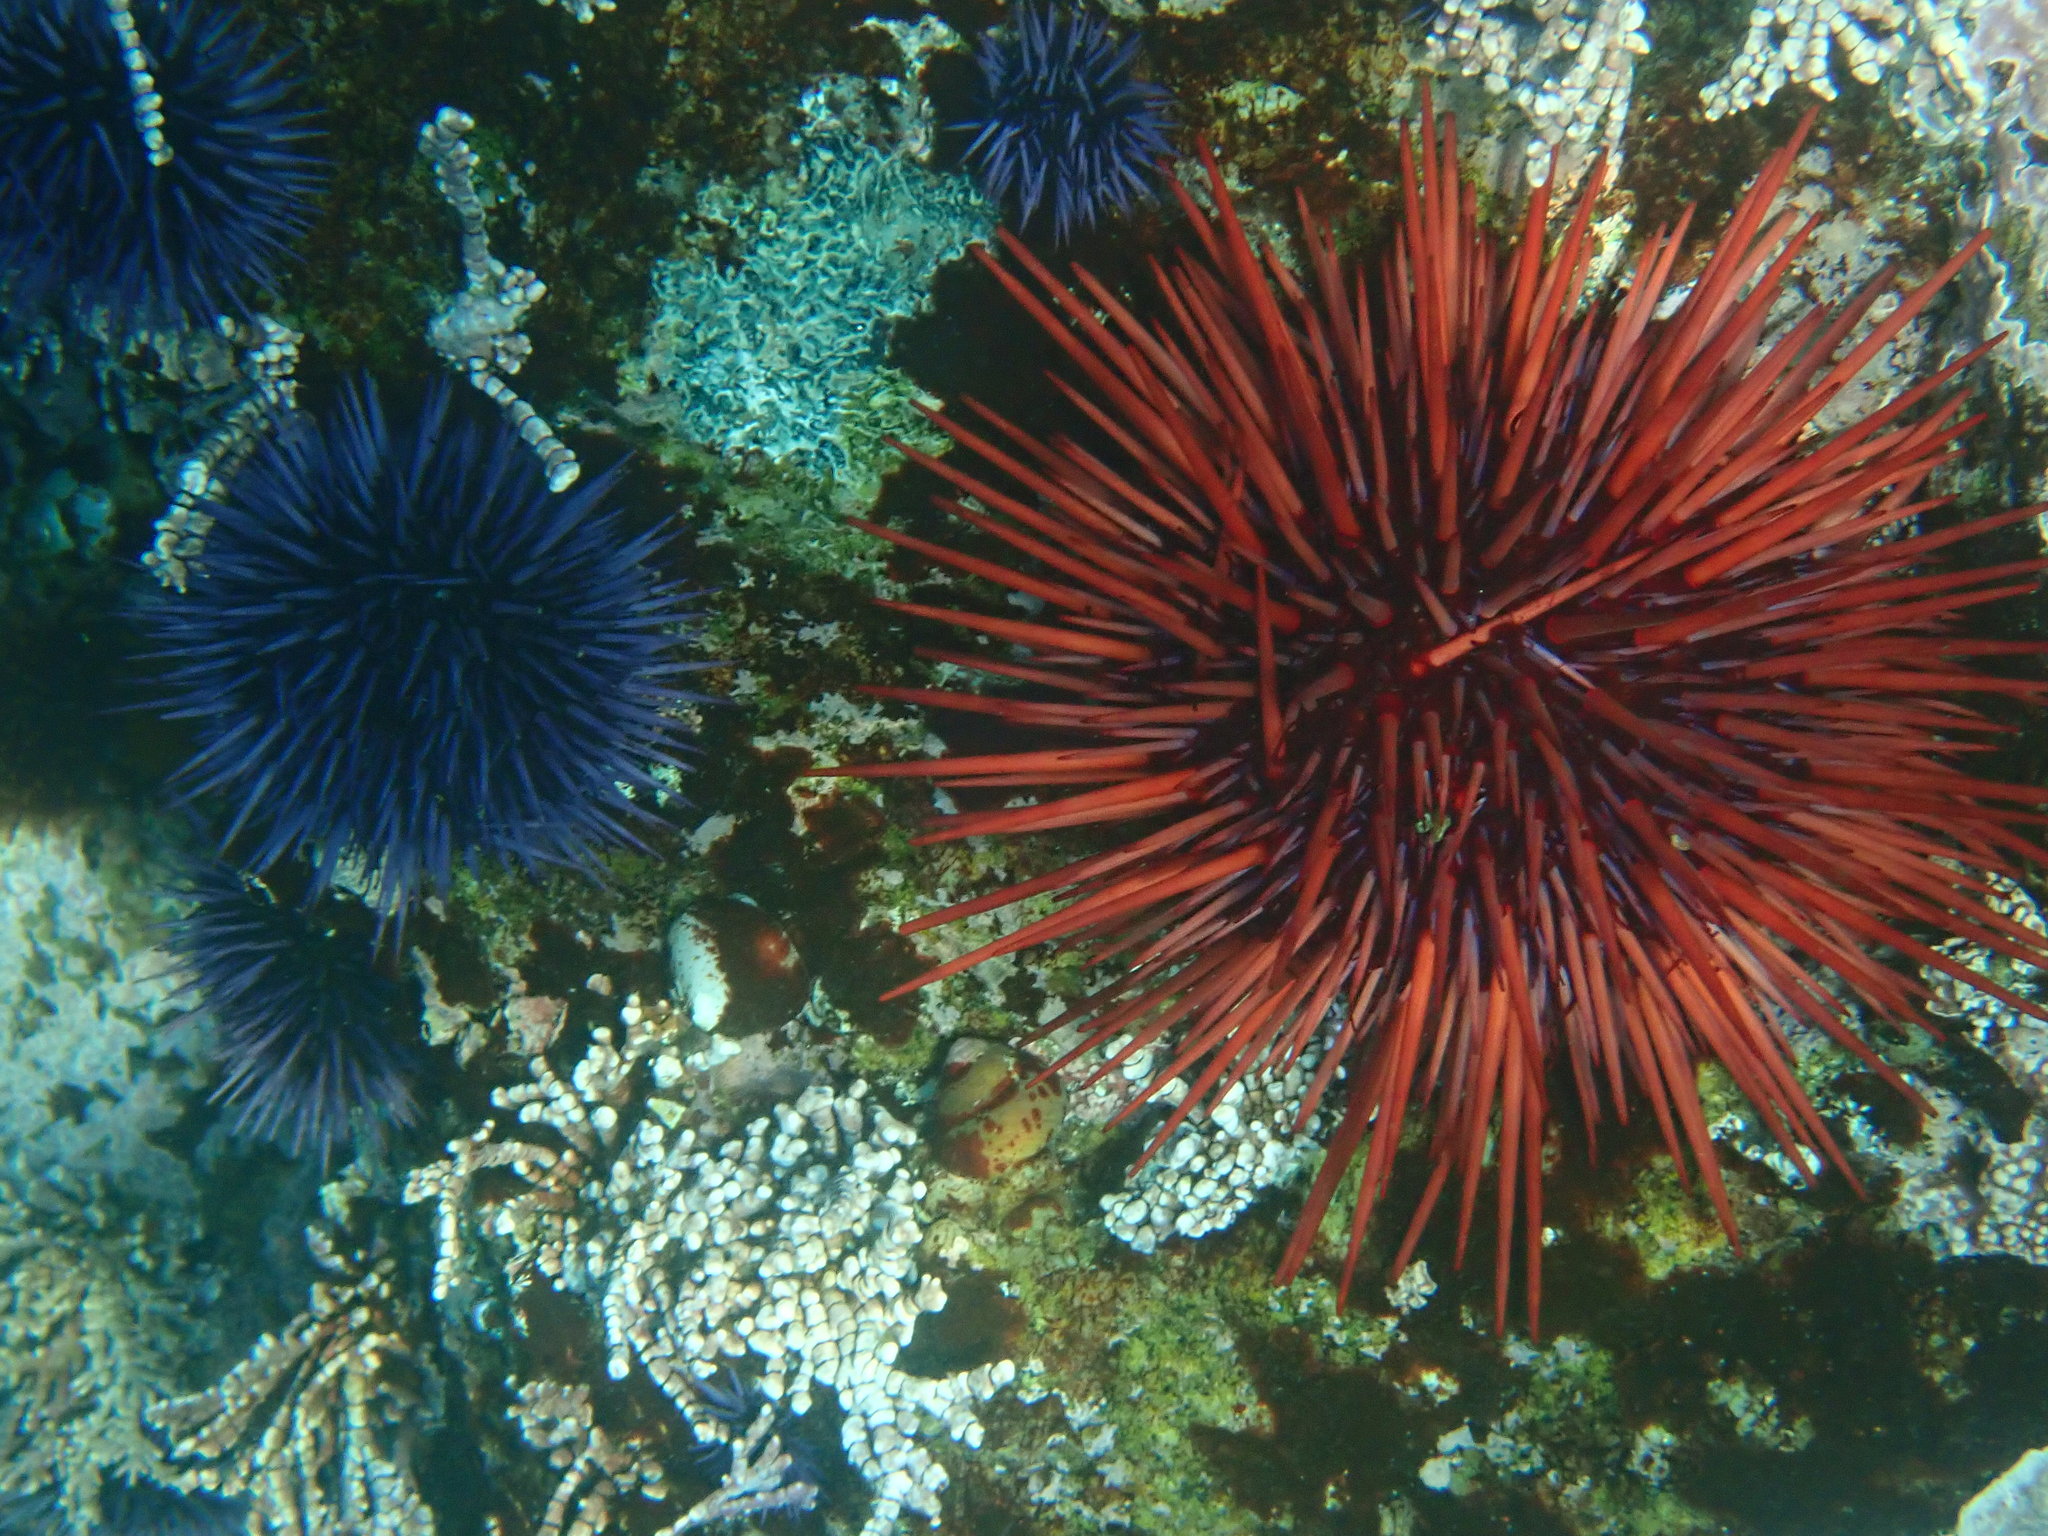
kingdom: Animalia
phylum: Echinodermata
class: Echinoidea
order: Camarodonta
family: Strongylocentrotidae
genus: Mesocentrotus
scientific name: Mesocentrotus franciscanus
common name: Red sea urchin
